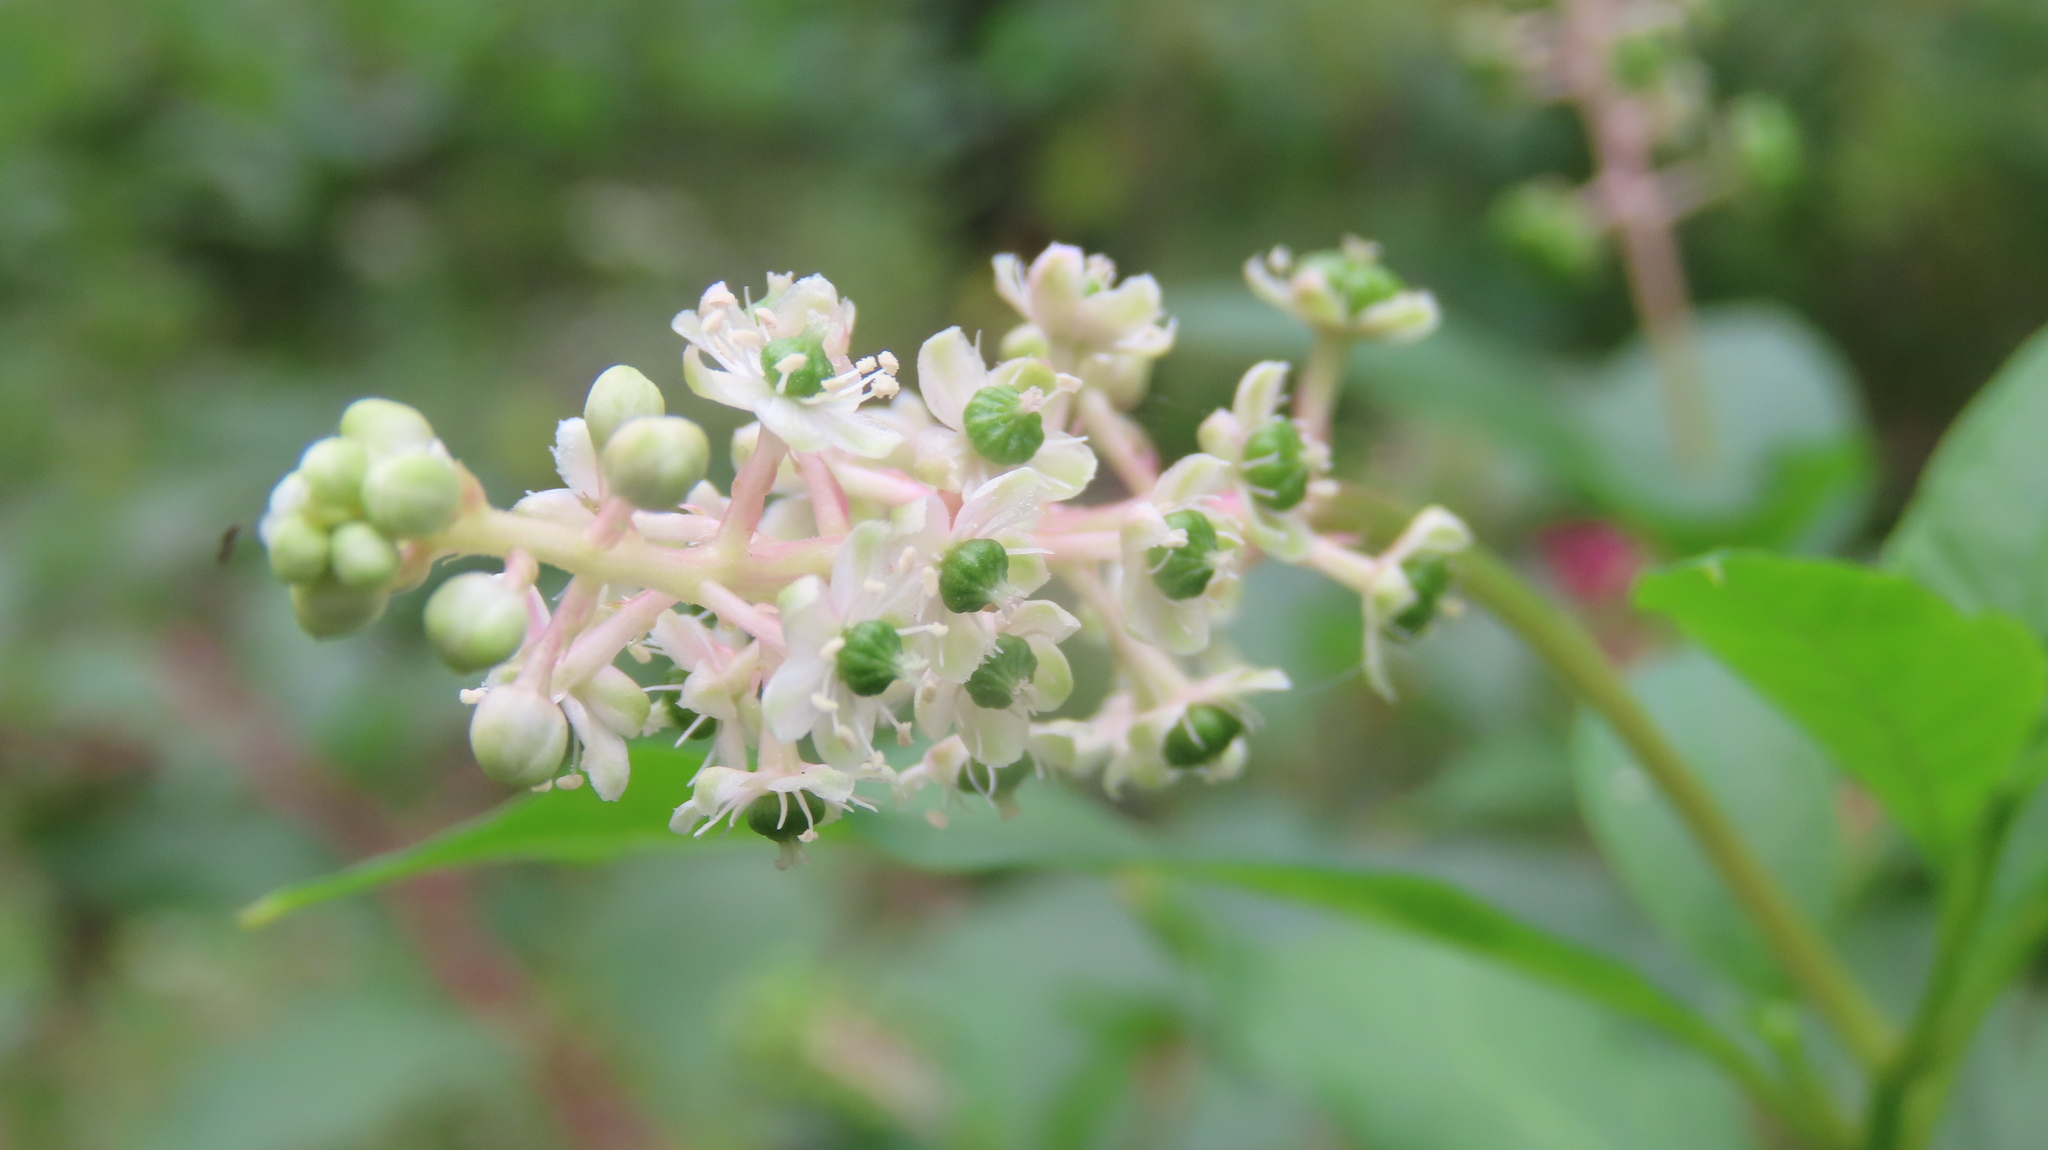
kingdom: Plantae
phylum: Tracheophyta
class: Magnoliopsida
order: Caryophyllales
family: Phytolaccaceae
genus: Phytolacca
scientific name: Phytolacca americana
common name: American pokeweed
